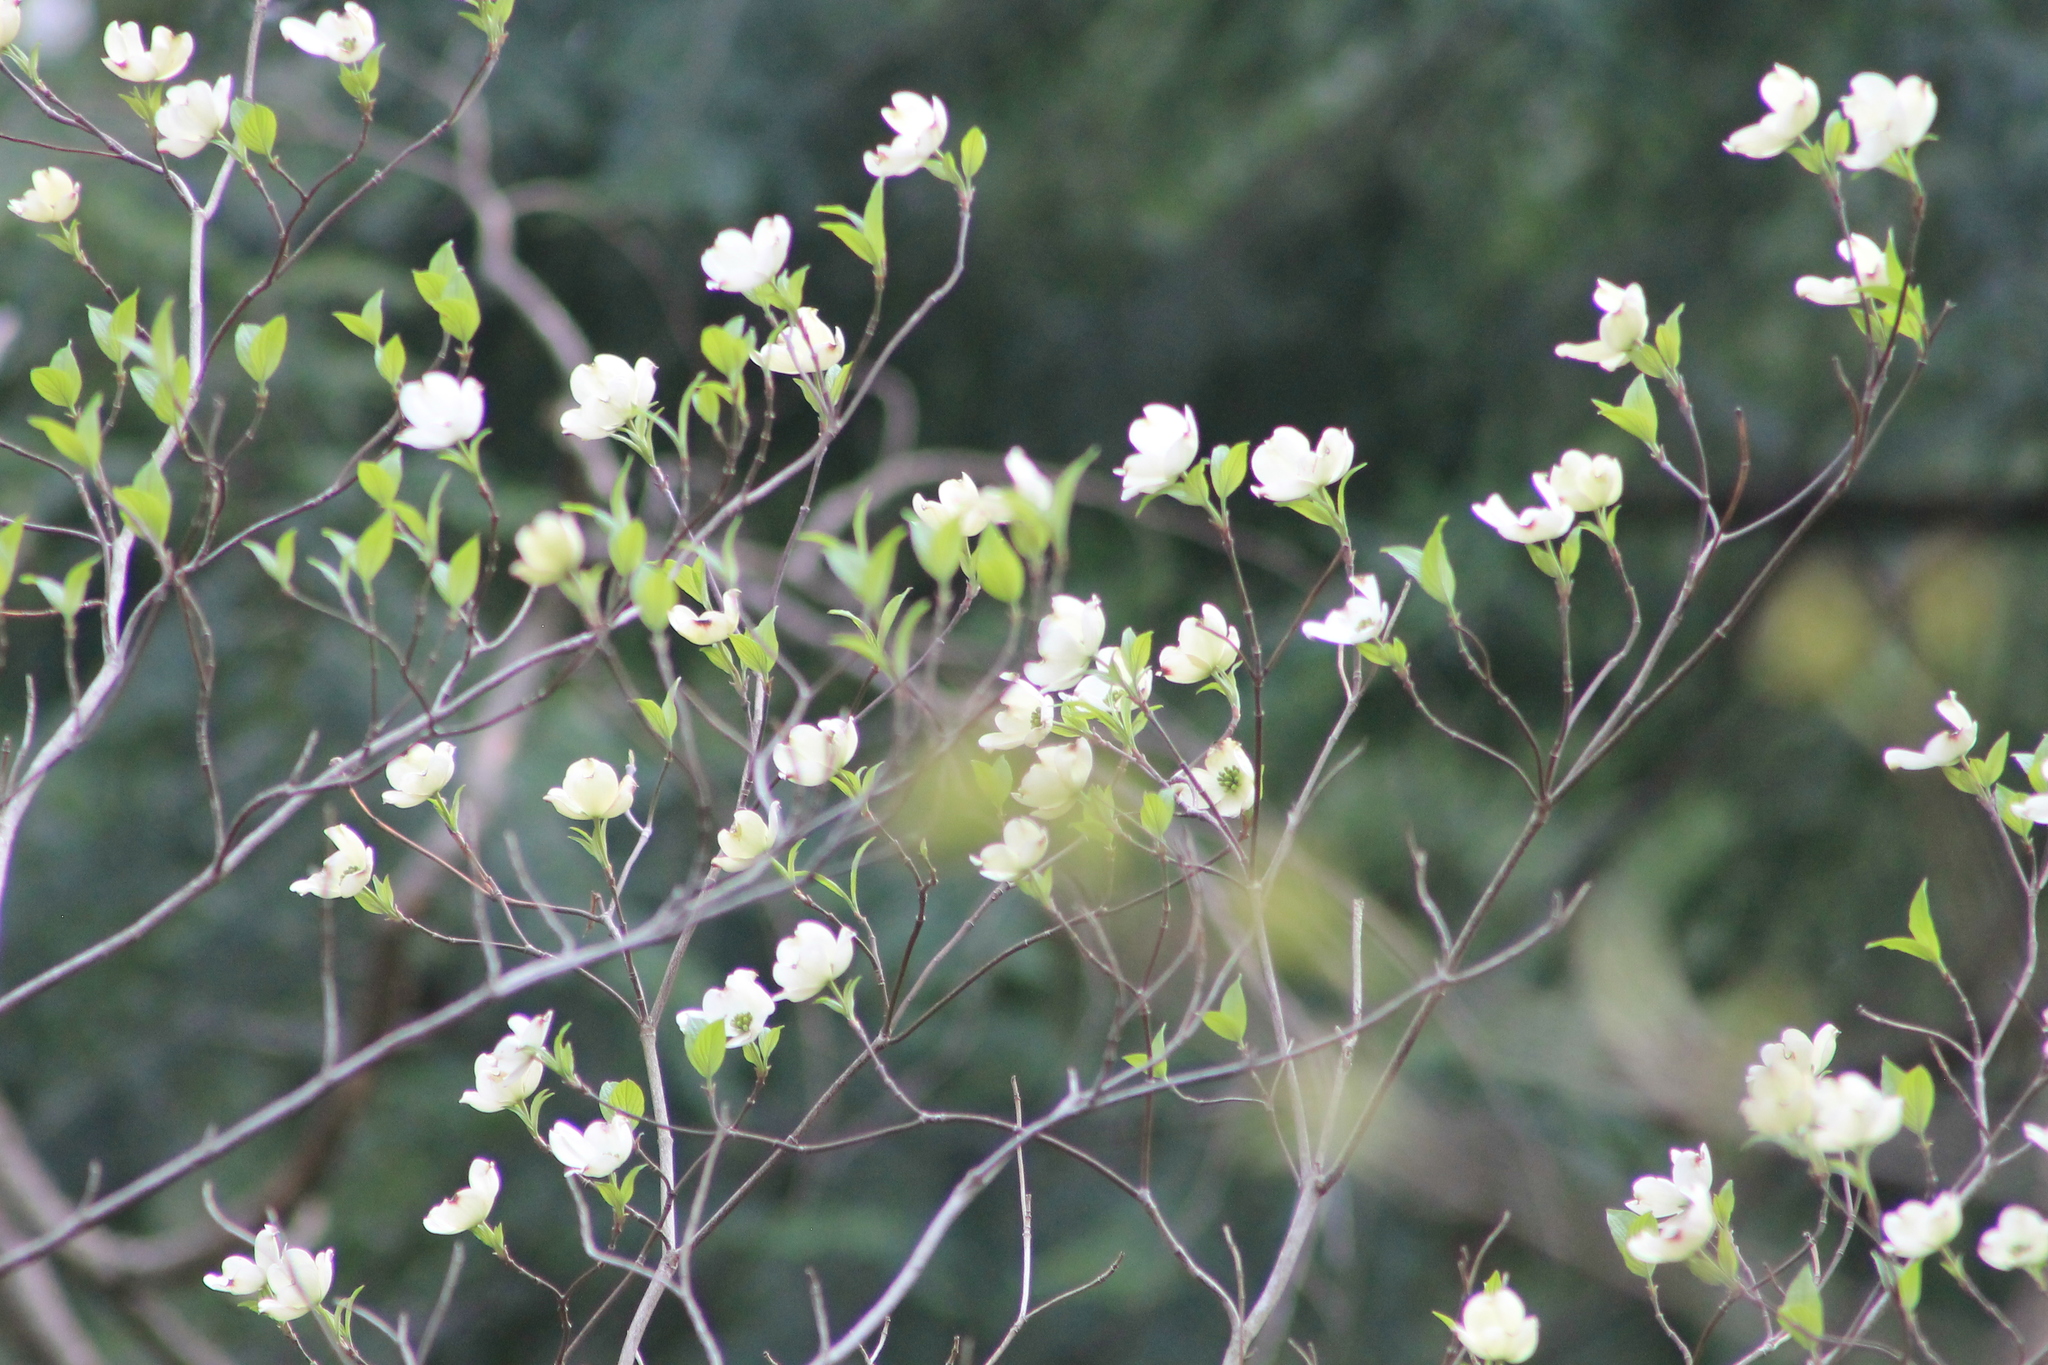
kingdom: Plantae
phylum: Tracheophyta
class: Magnoliopsida
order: Cornales
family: Cornaceae
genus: Cornus
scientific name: Cornus florida
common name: Flowering dogwood
